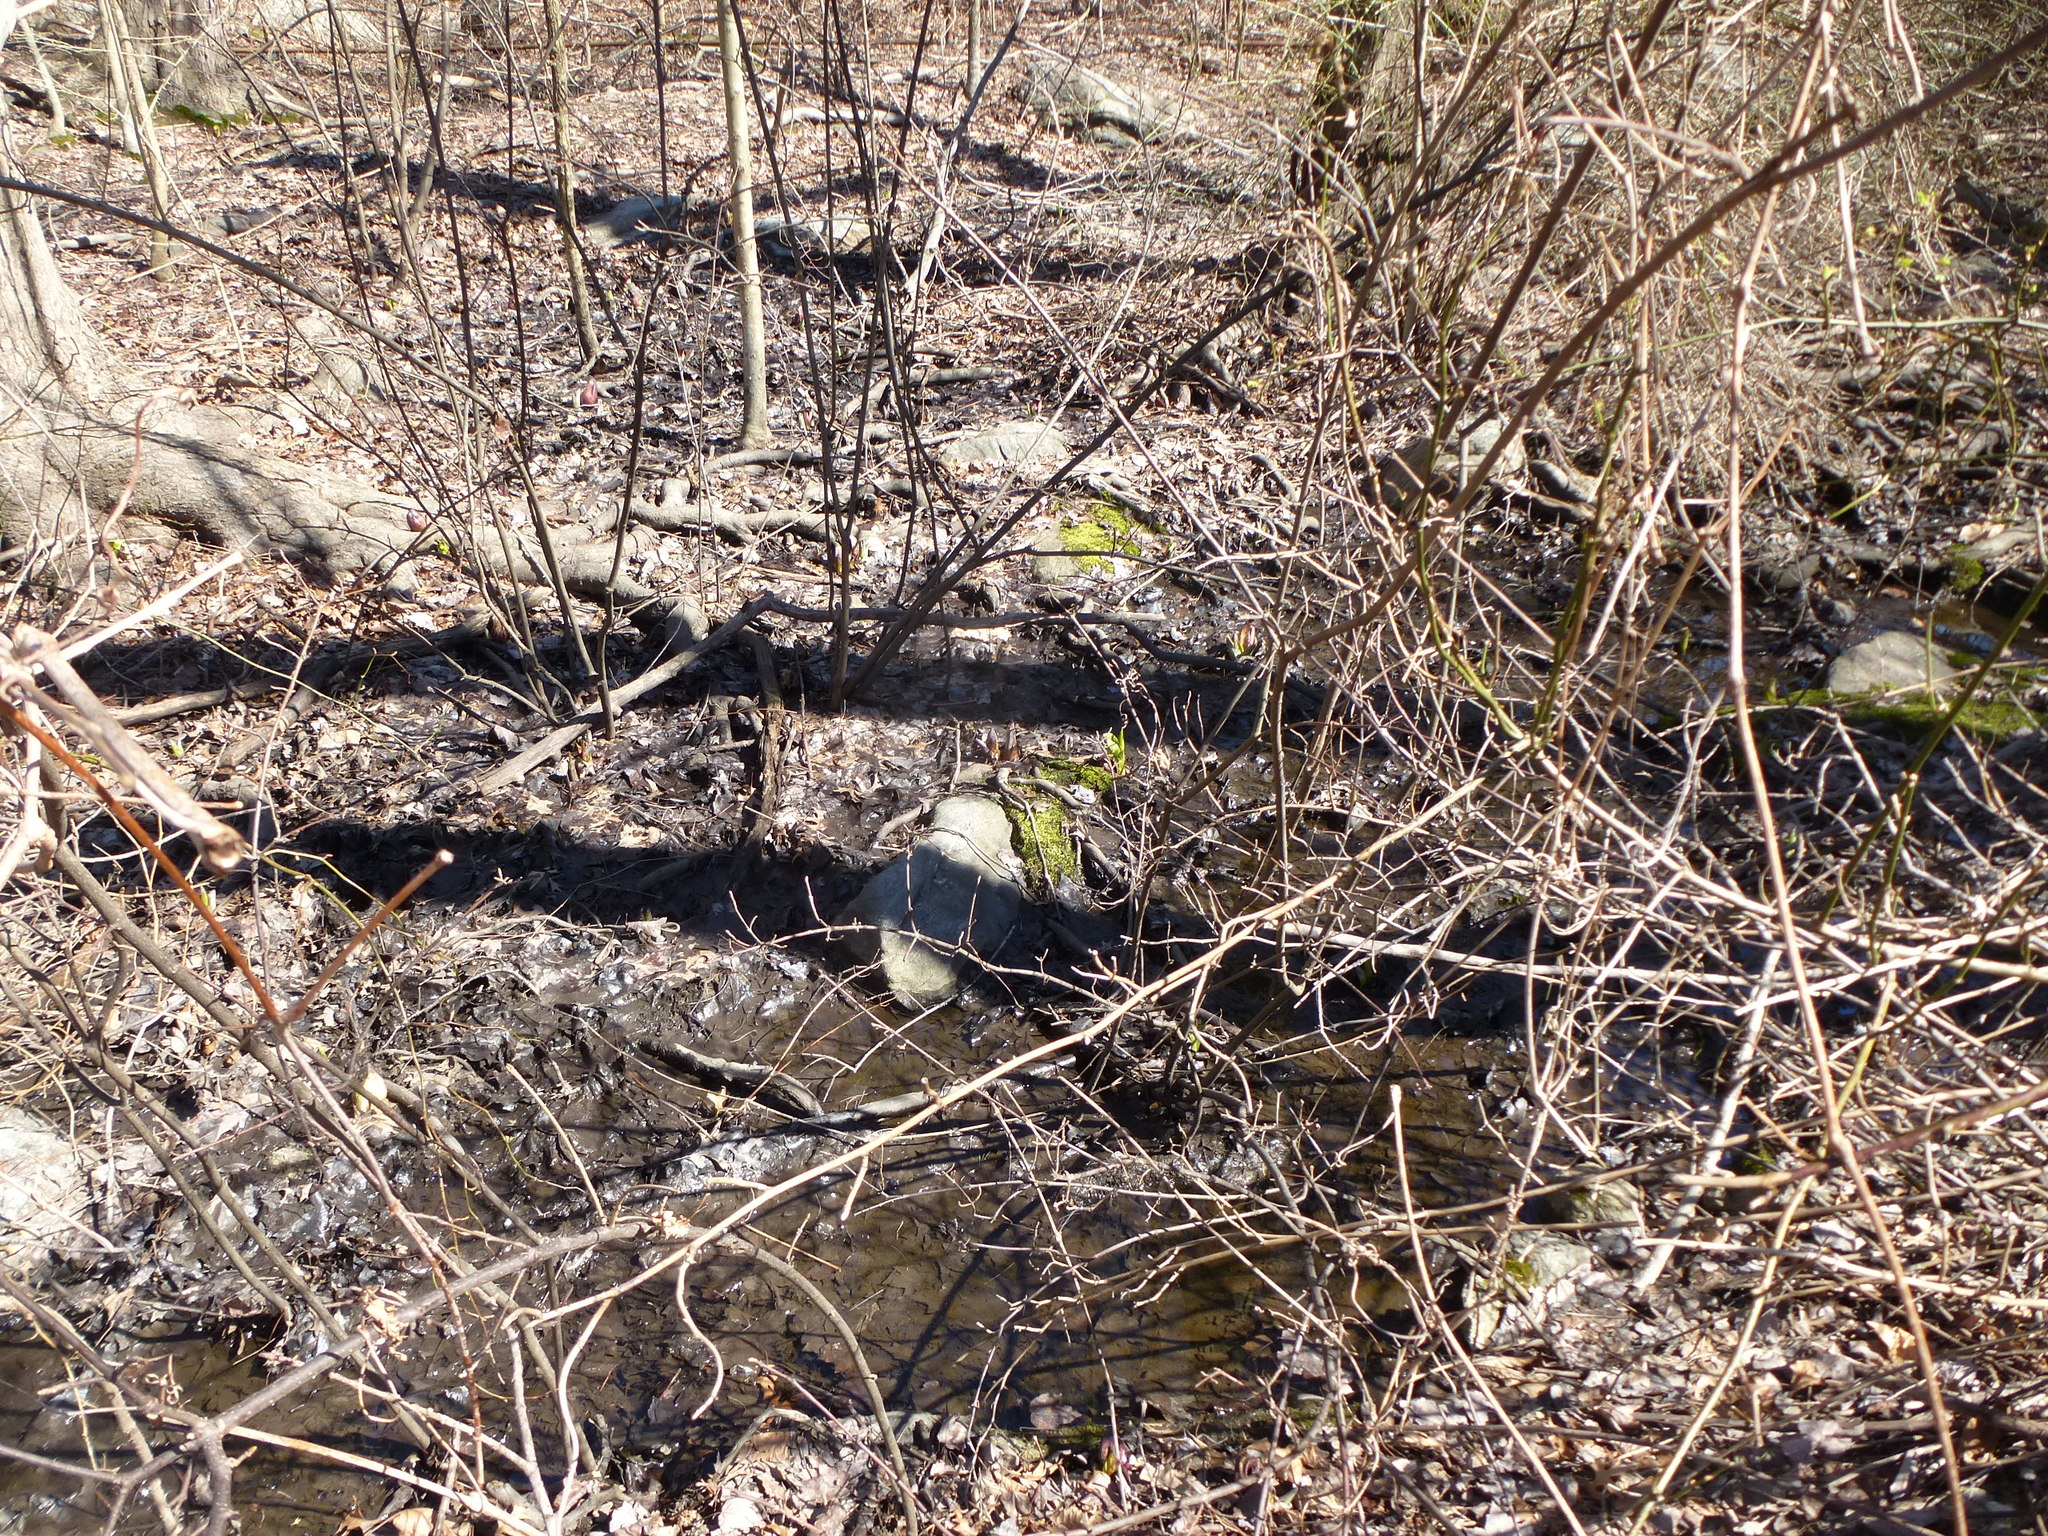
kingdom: Plantae
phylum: Tracheophyta
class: Liliopsida
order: Alismatales
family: Araceae
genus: Symplocarpus
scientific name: Symplocarpus foetidus
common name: Eastern skunk cabbage
